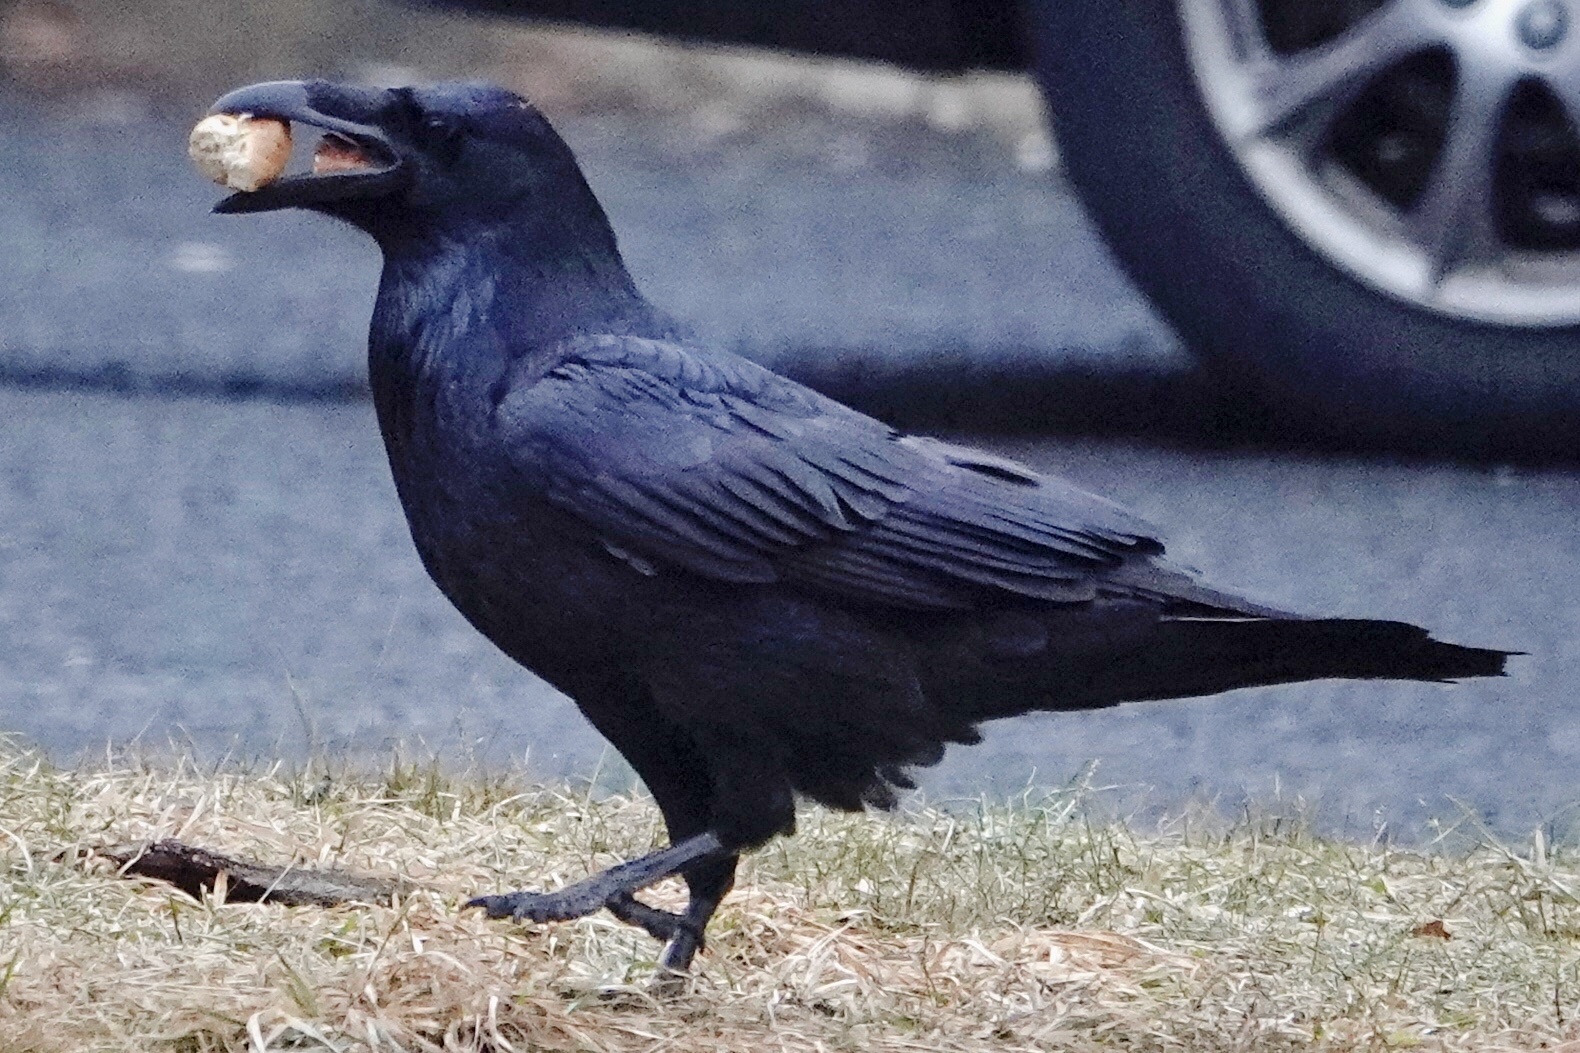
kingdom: Animalia
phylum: Chordata
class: Aves
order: Passeriformes
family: Corvidae
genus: Corvus
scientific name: Corvus corax
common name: Common raven
